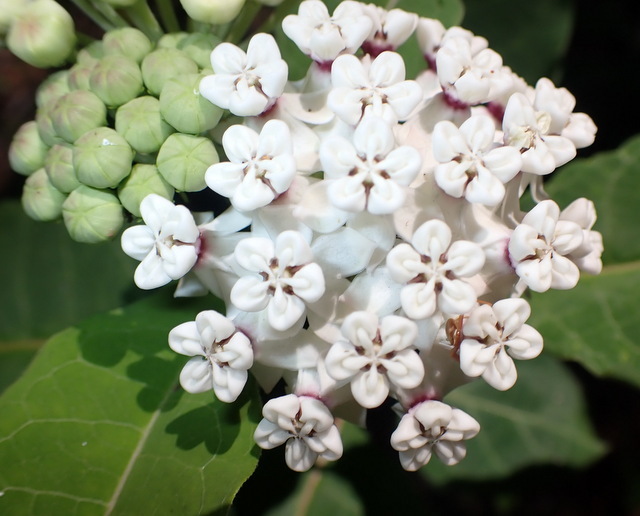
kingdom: Plantae
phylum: Tracheophyta
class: Magnoliopsida
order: Gentianales
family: Apocynaceae
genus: Asclepias
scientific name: Asclepias variegata
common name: Variegated milkweed
